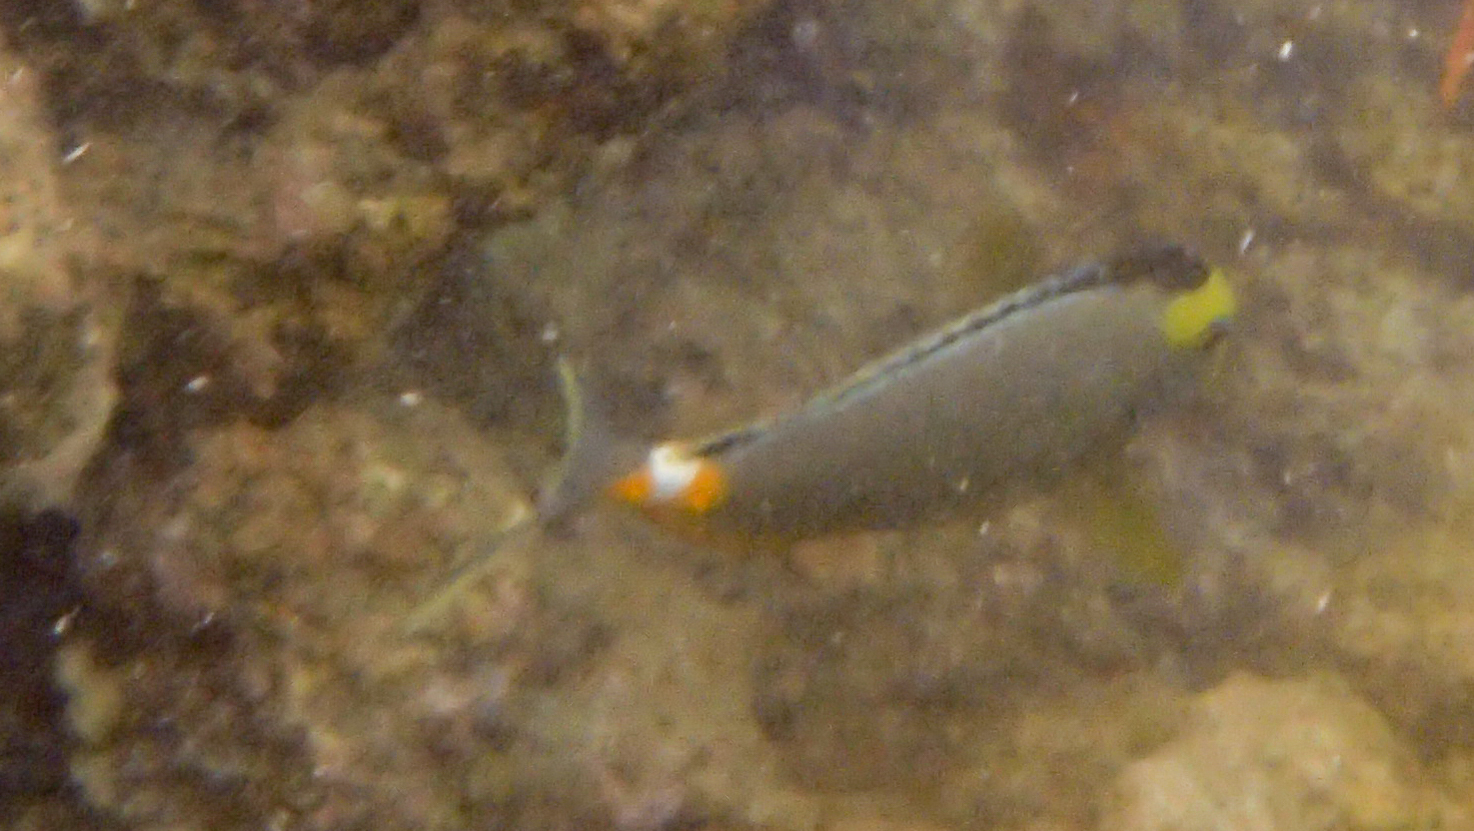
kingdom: Animalia
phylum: Chordata
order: Perciformes
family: Acanthuridae
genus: Naso
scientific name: Naso lituratus
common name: Orangespine unicornfish
